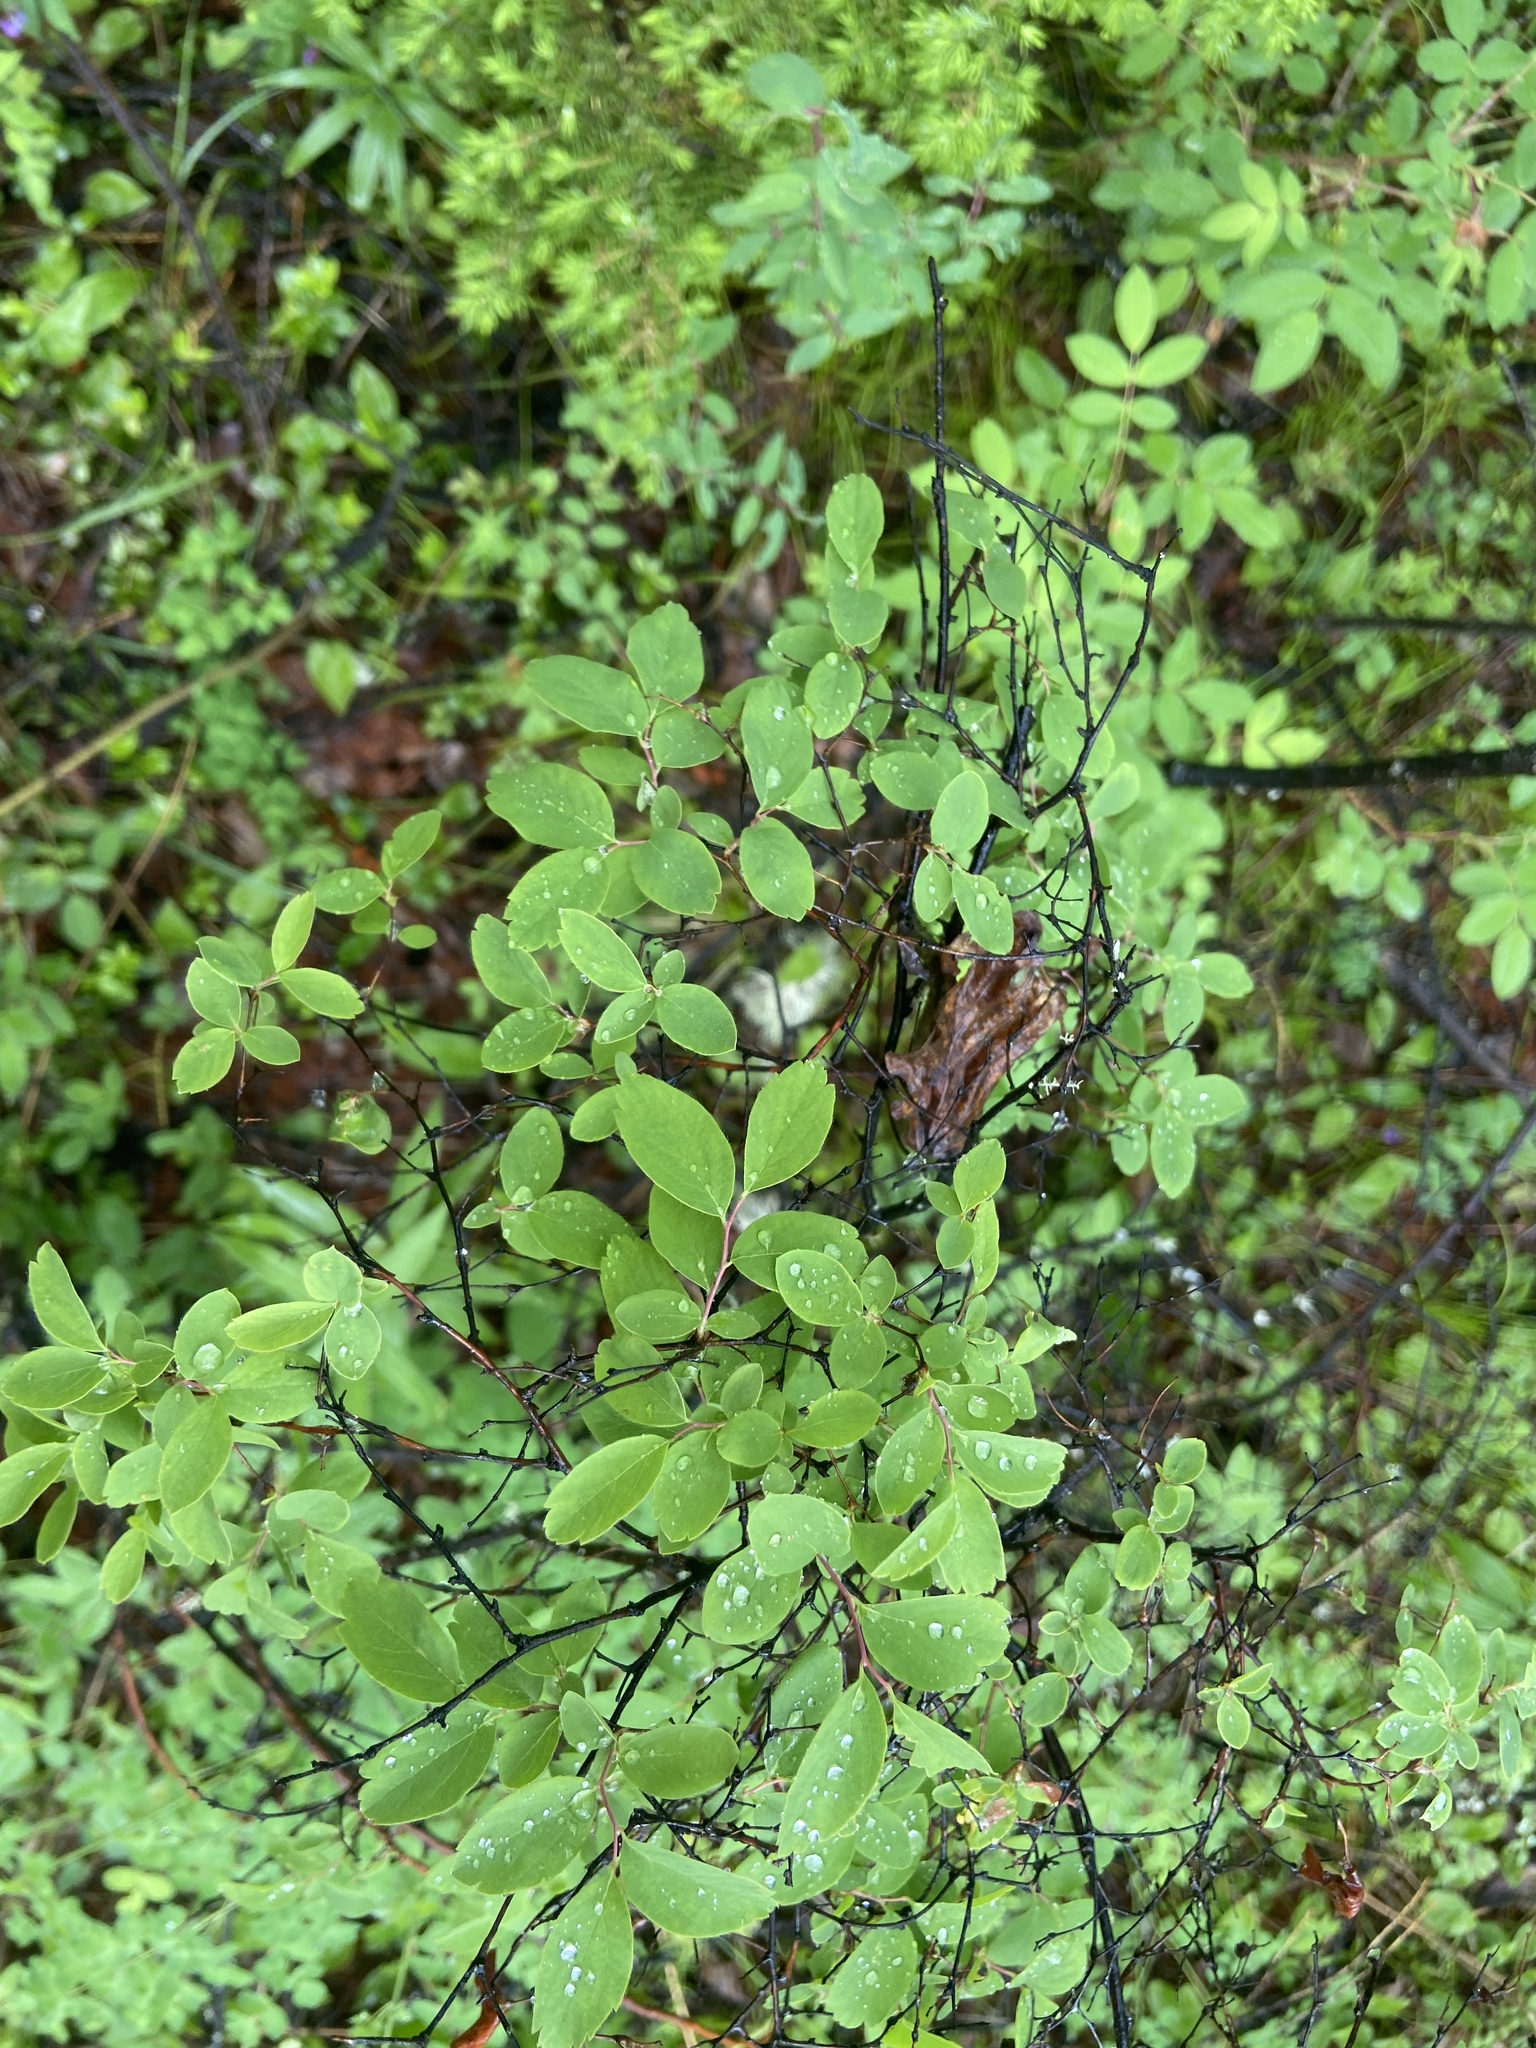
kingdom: Plantae
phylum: Tracheophyta
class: Magnoliopsida
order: Rosales
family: Rosaceae
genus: Spiraea
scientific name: Spiraea media
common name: Russian spiraea
